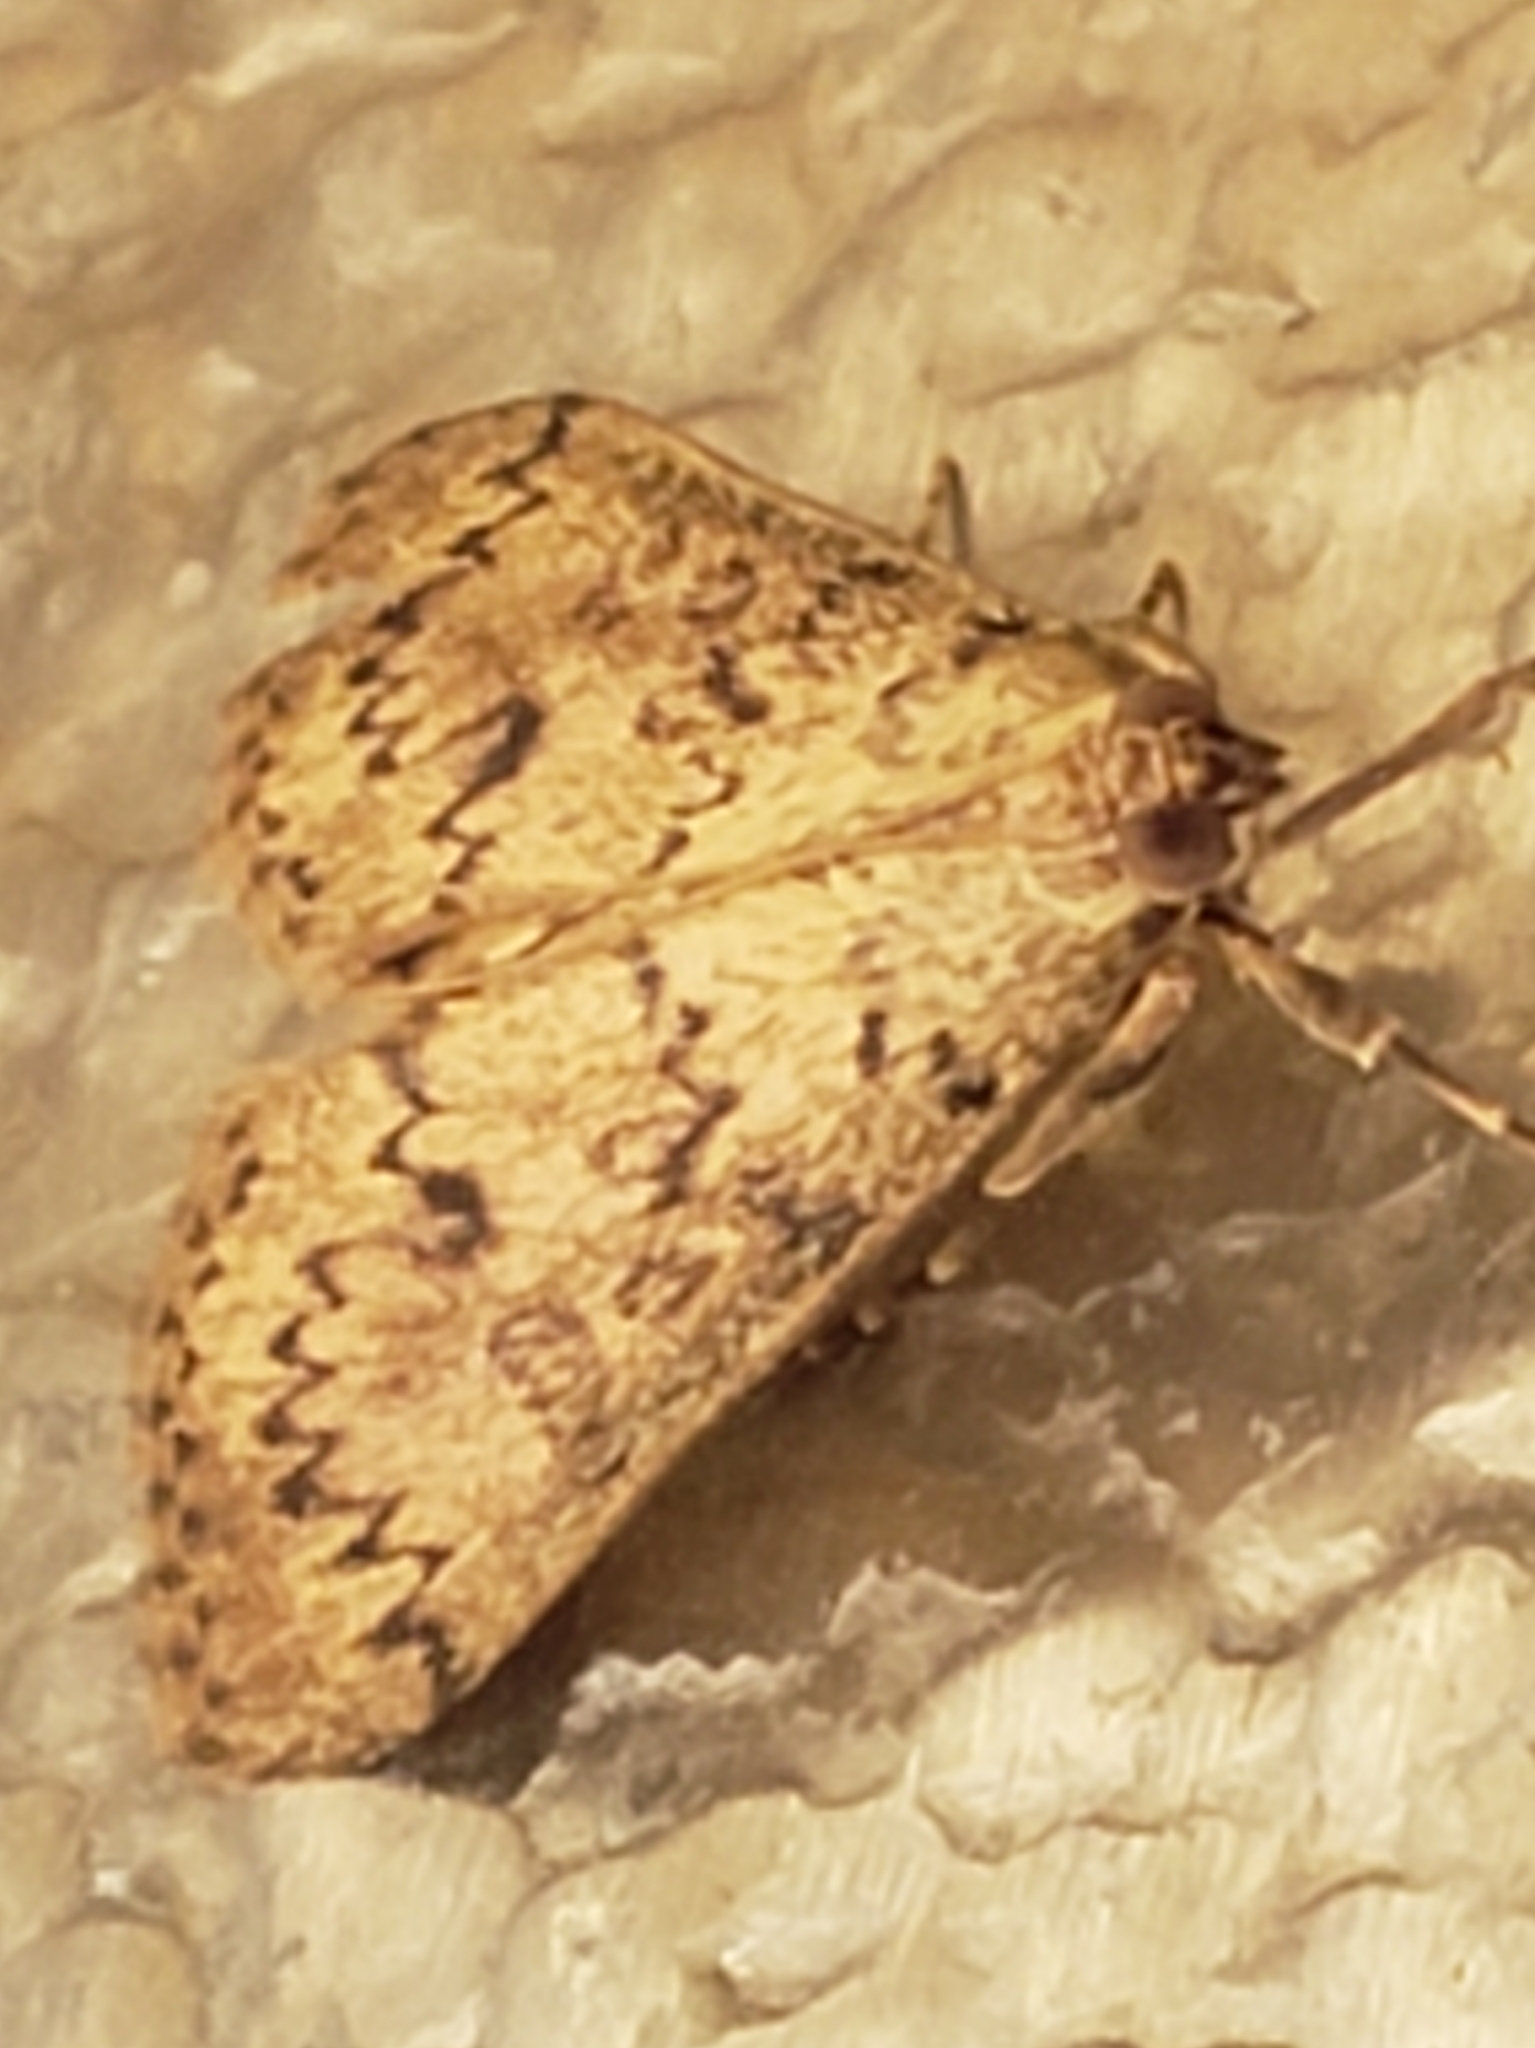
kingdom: Animalia
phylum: Arthropoda
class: Insecta
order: Lepidoptera
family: Crambidae
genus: Asciodes
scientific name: Asciodes gordialis
